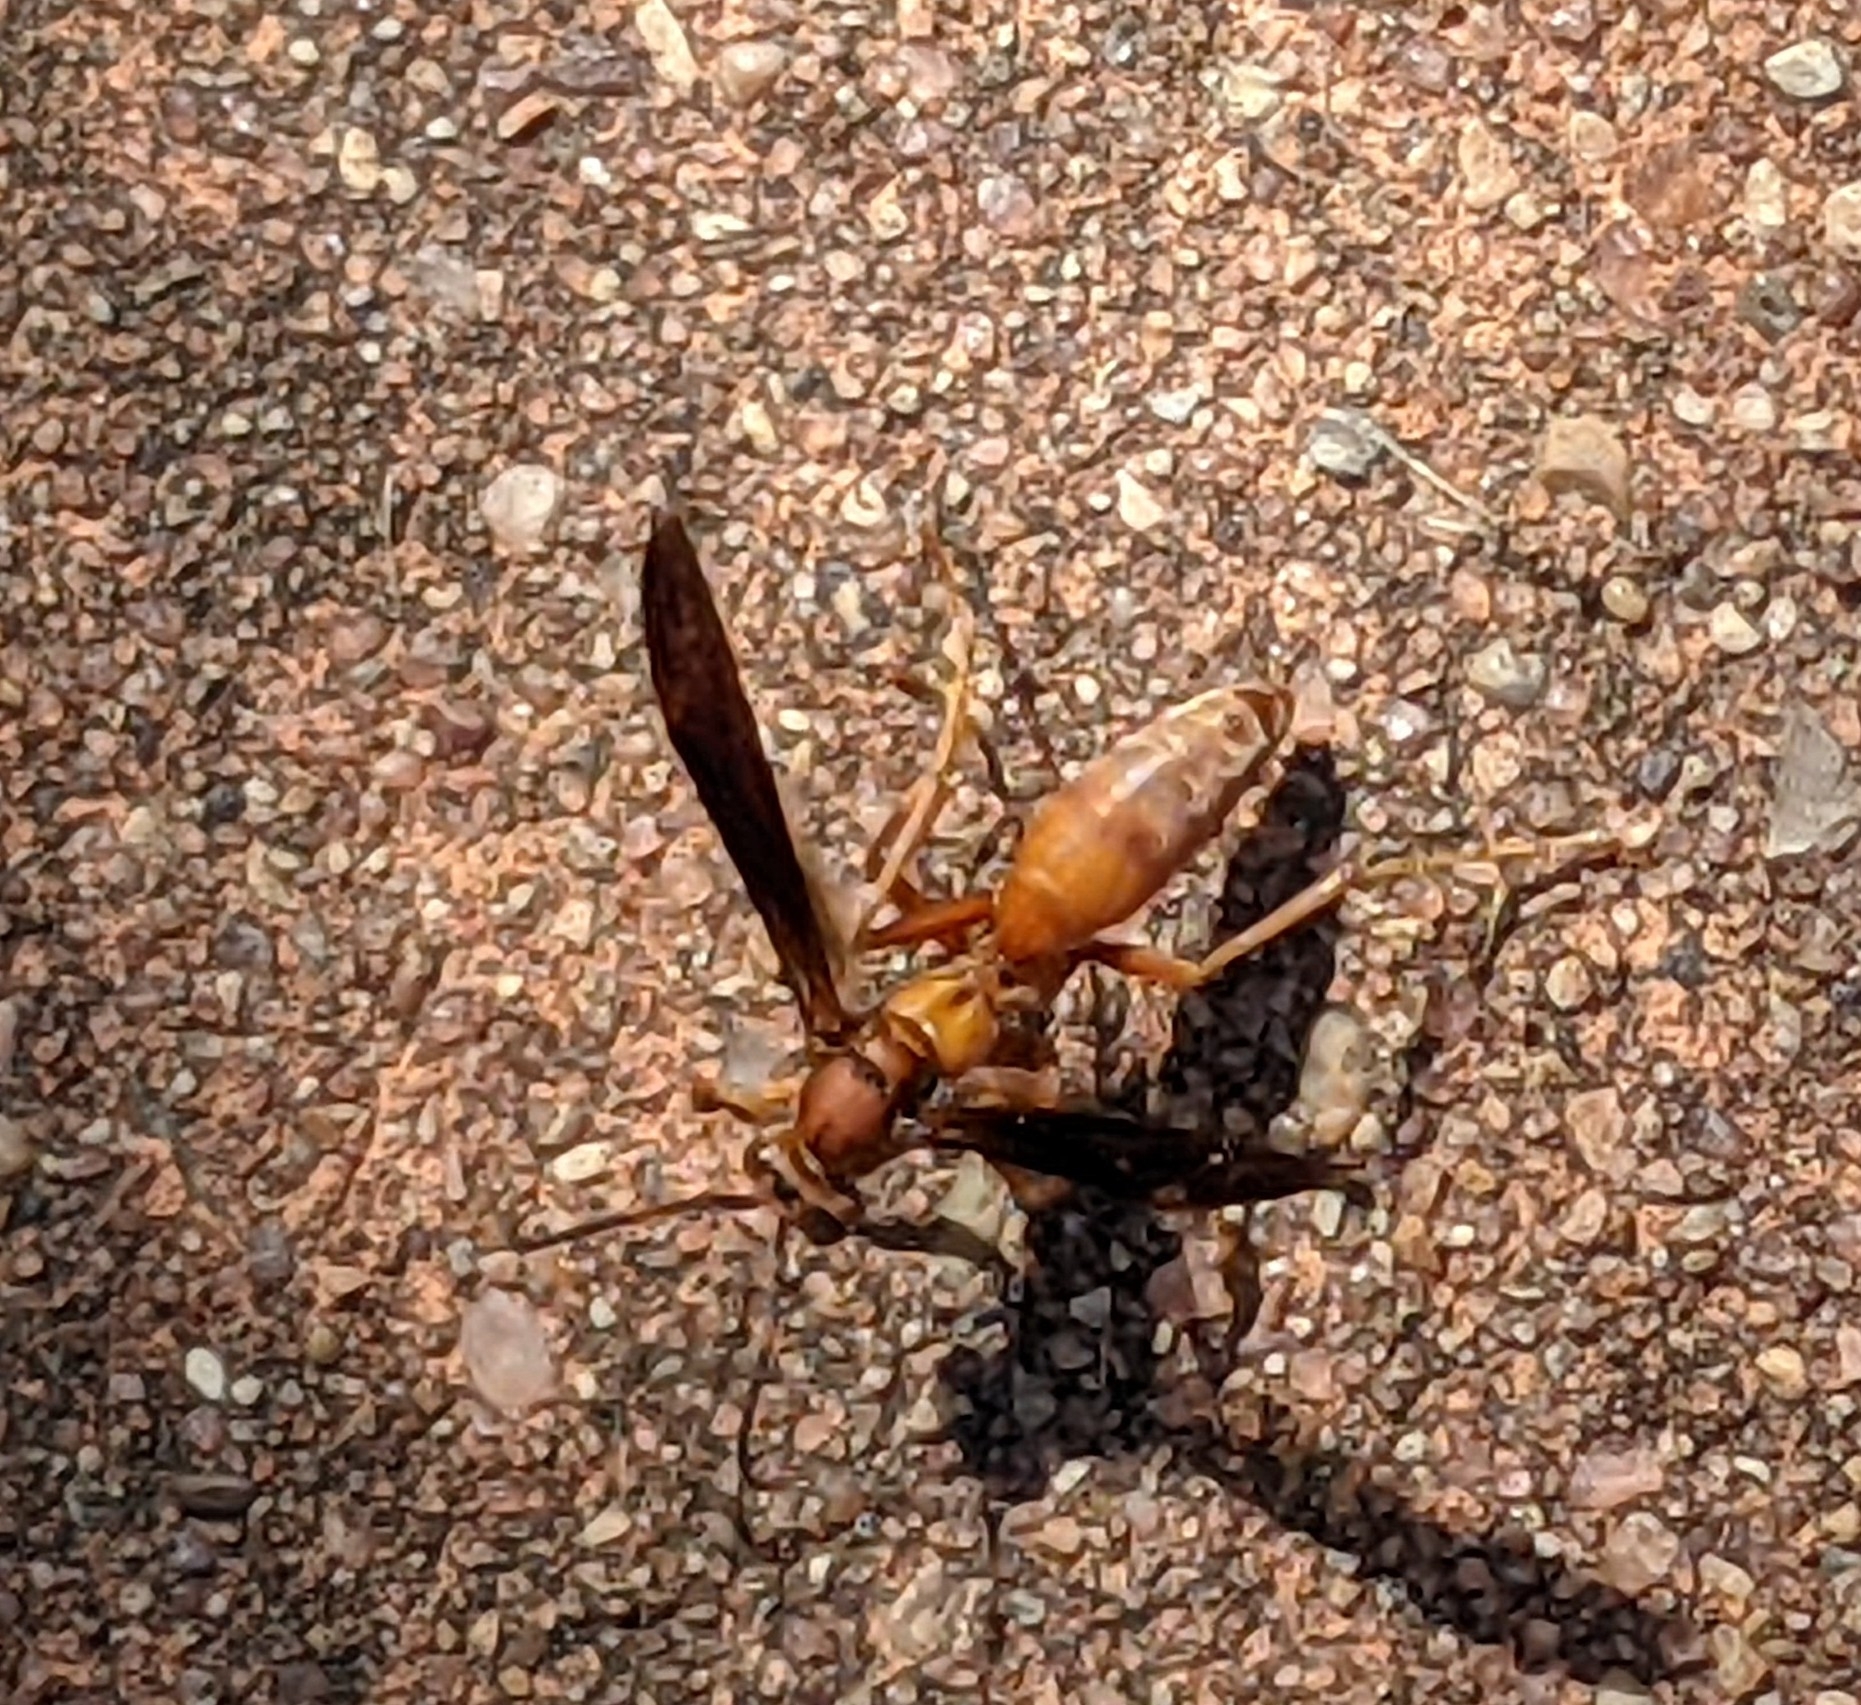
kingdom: Animalia
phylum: Arthropoda
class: Insecta
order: Hymenoptera
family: Eumenidae
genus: Polistes
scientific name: Polistes carolina
